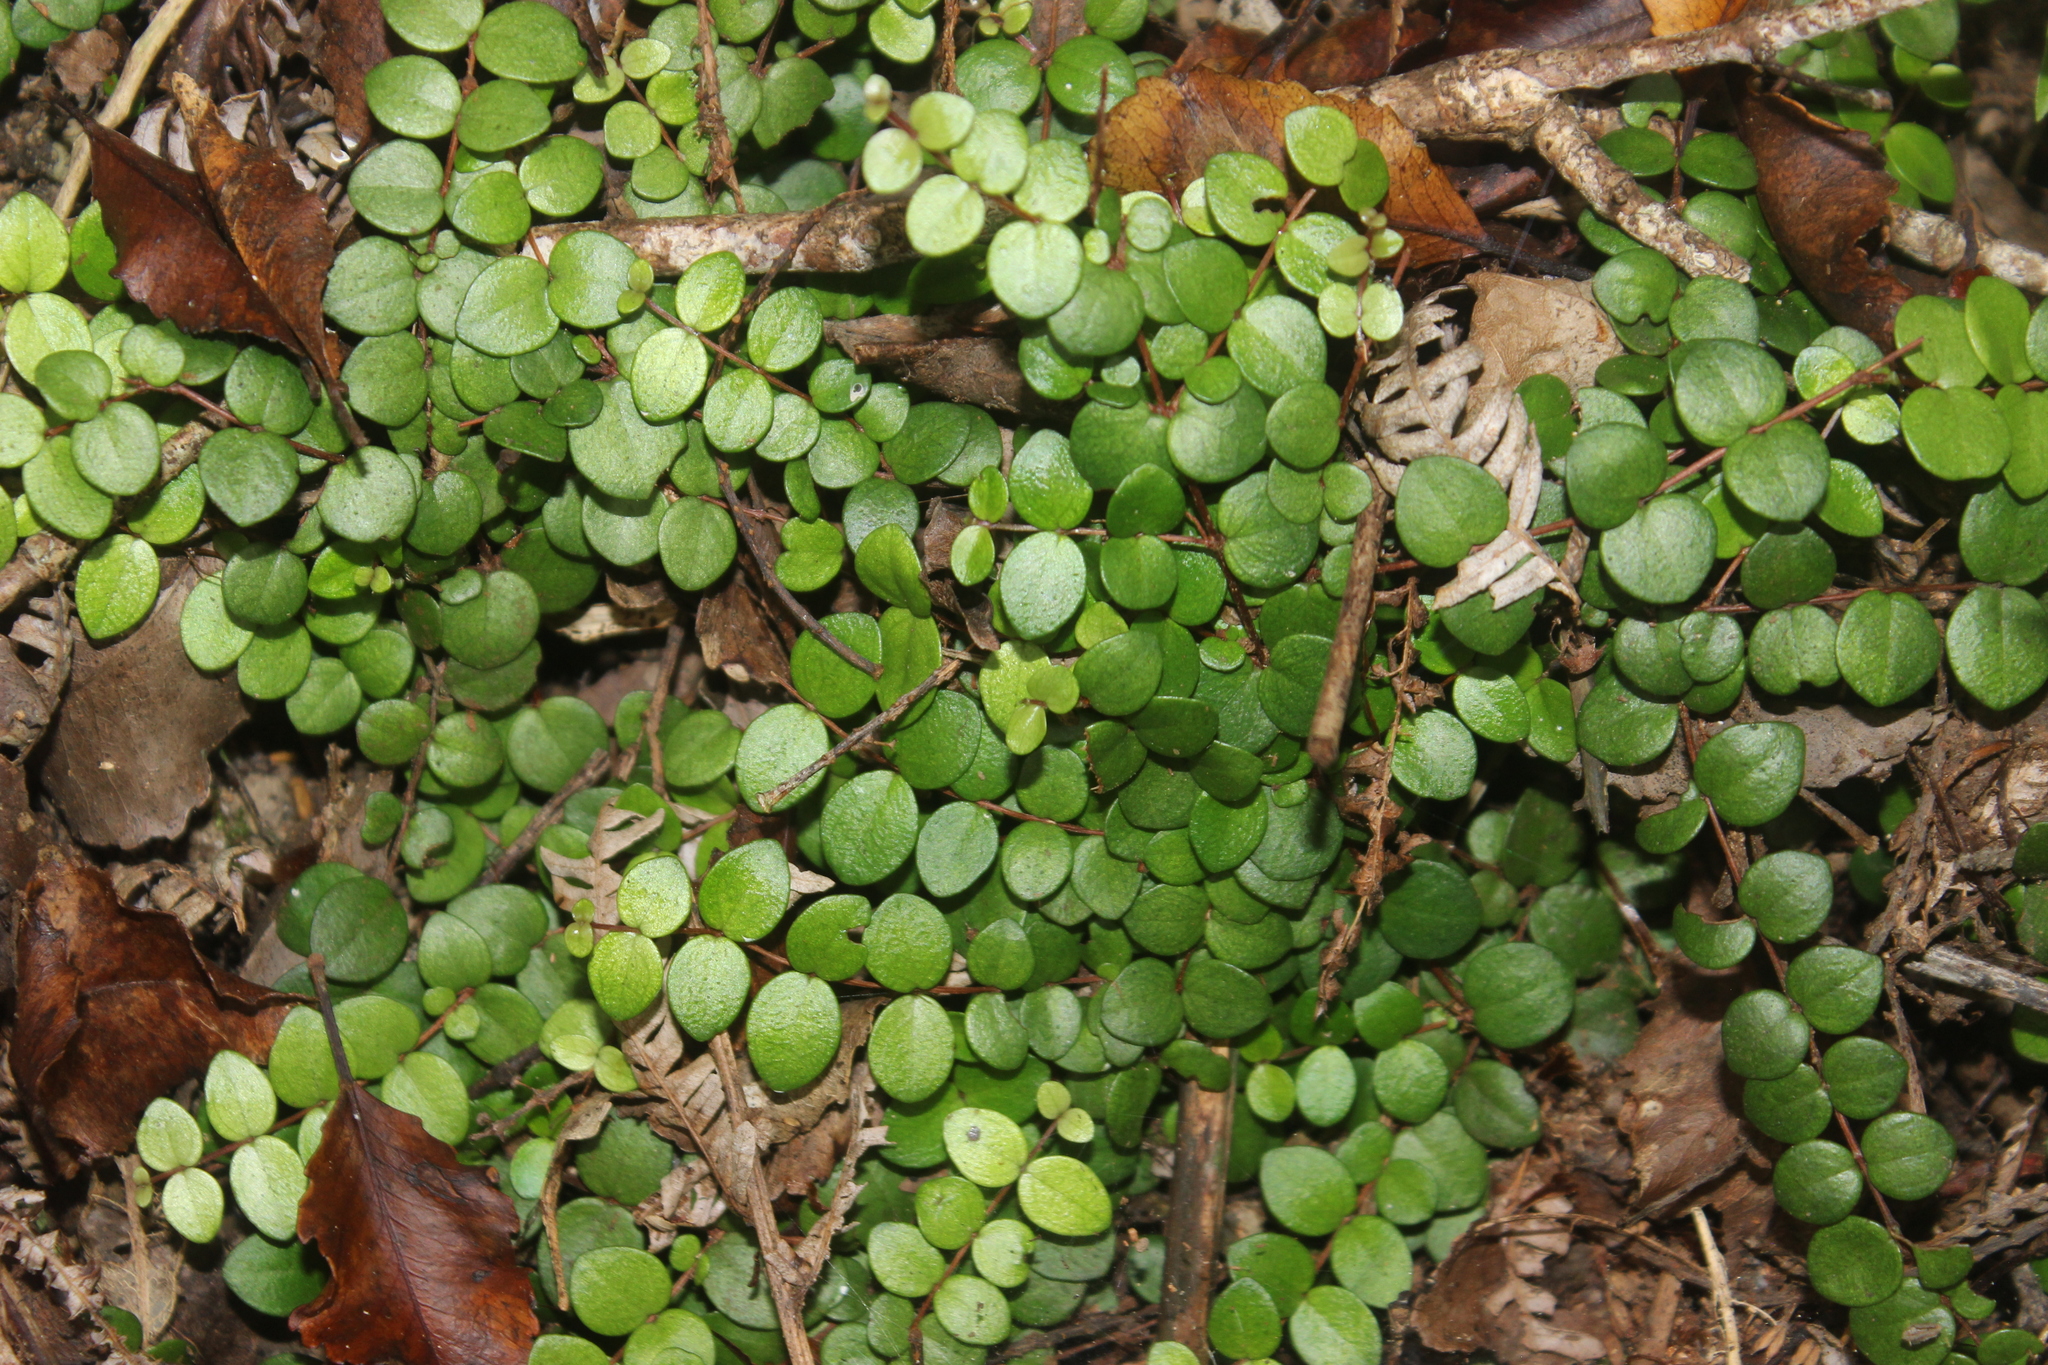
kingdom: Plantae
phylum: Tracheophyta
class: Magnoliopsida
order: Myrtales
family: Myrtaceae
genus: Metrosideros
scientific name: Metrosideros perforata
